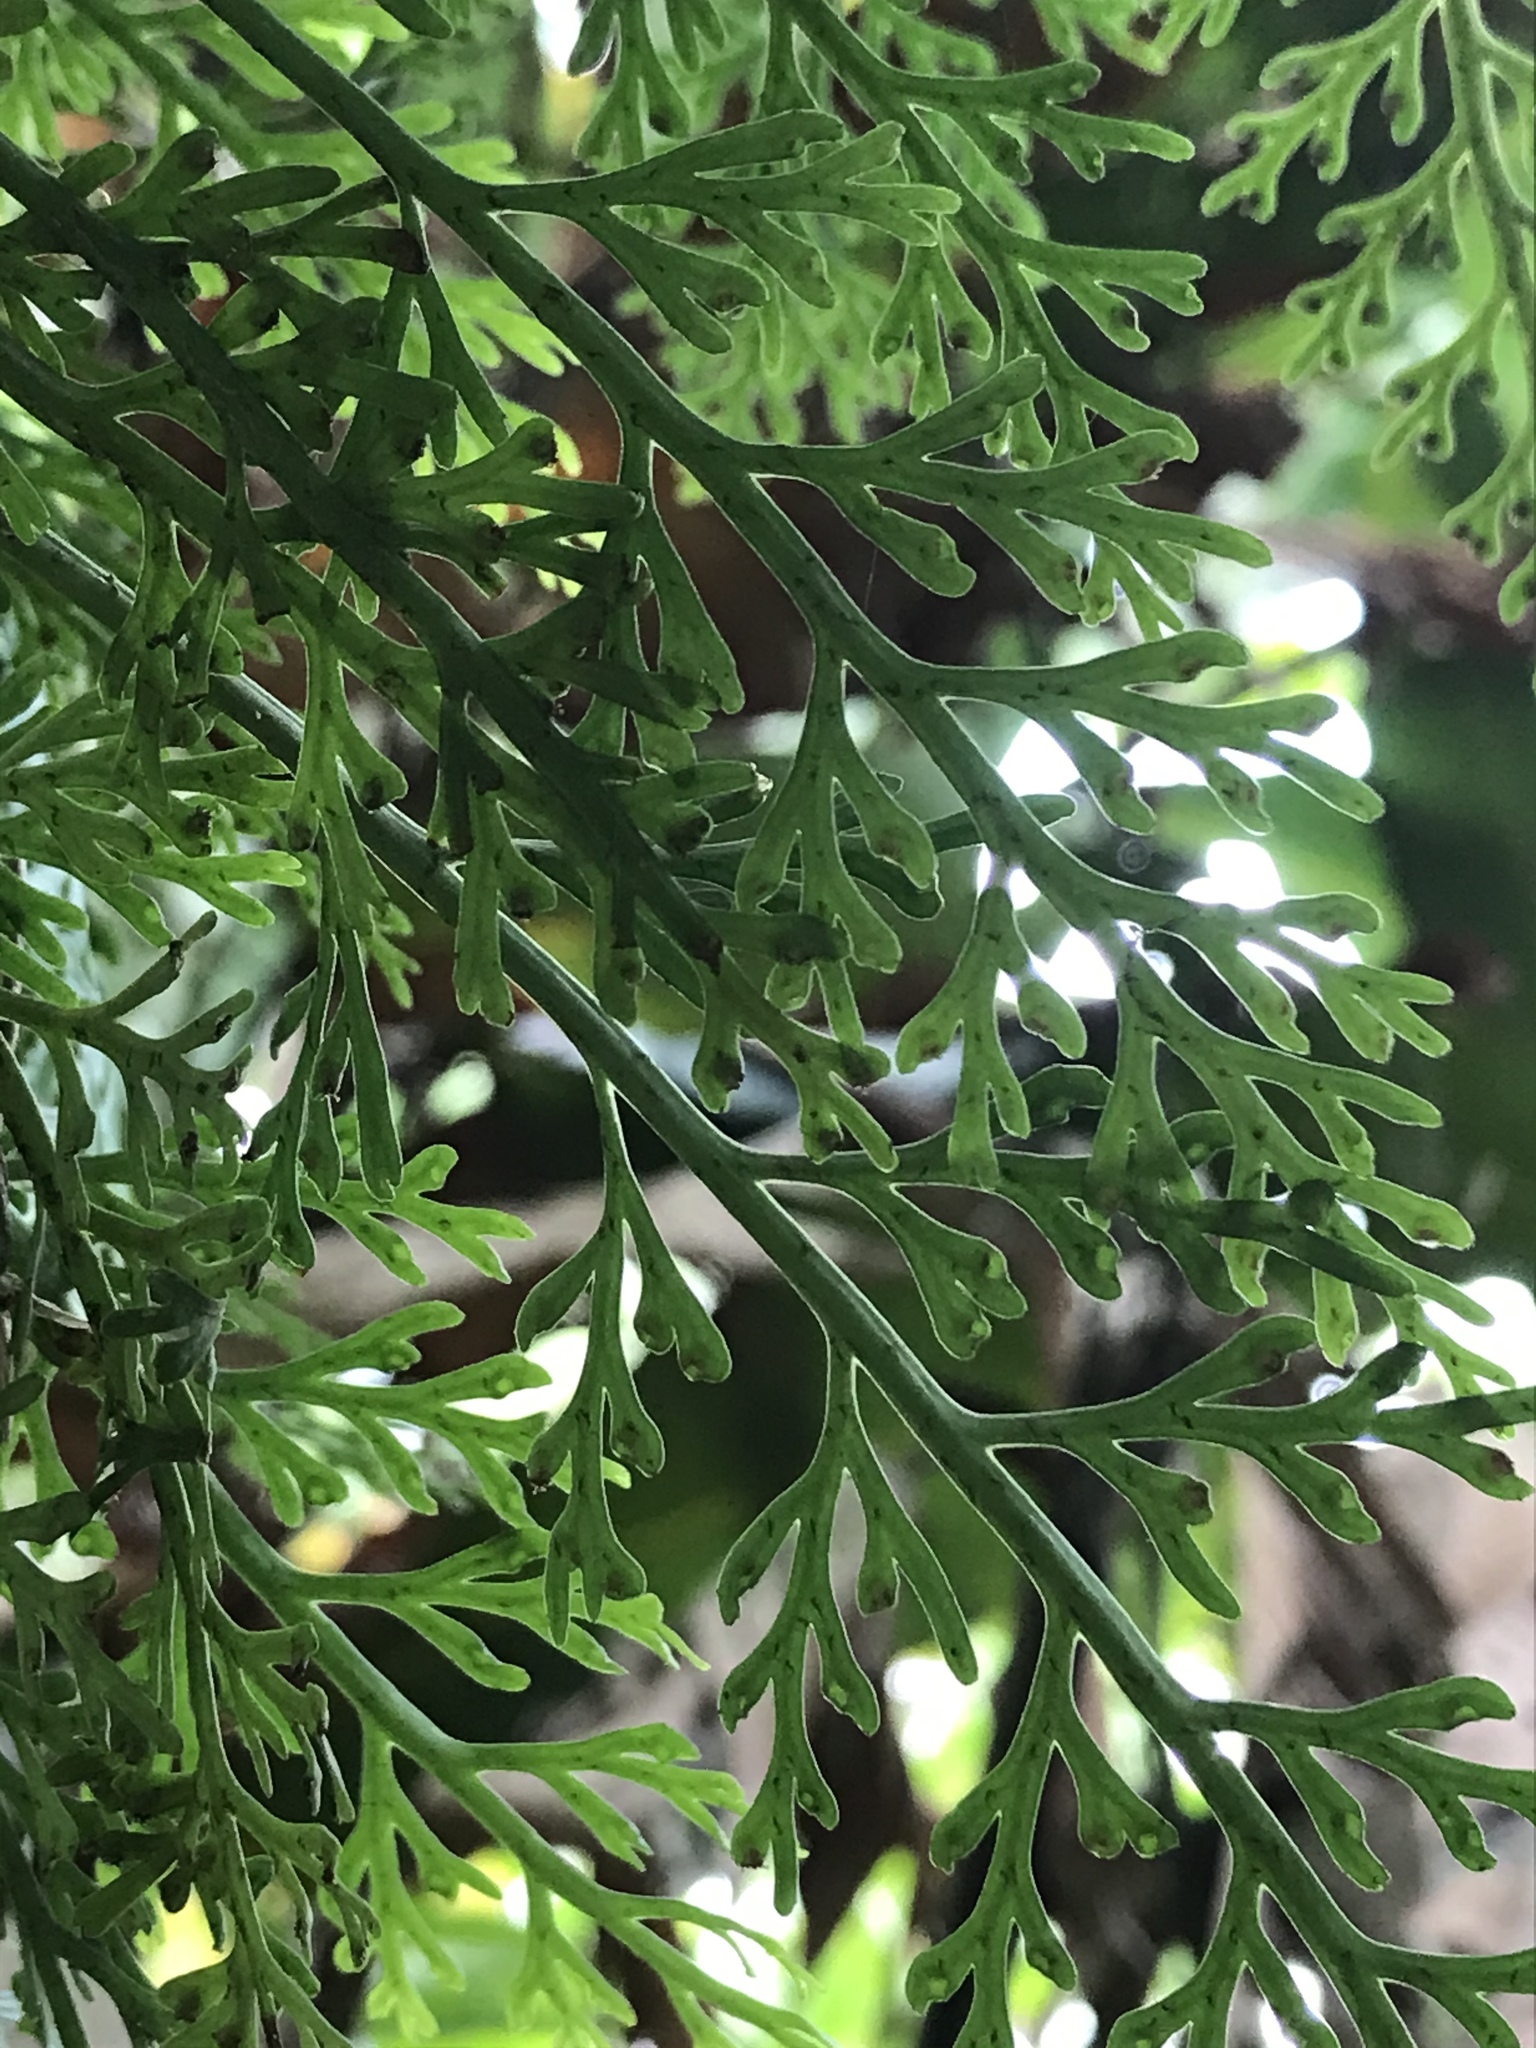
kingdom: Plantae
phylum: Tracheophyta
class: Polypodiopsida
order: Polypodiales
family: Aspleniaceae
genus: Asplenium
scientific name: Asplenium theciferum
